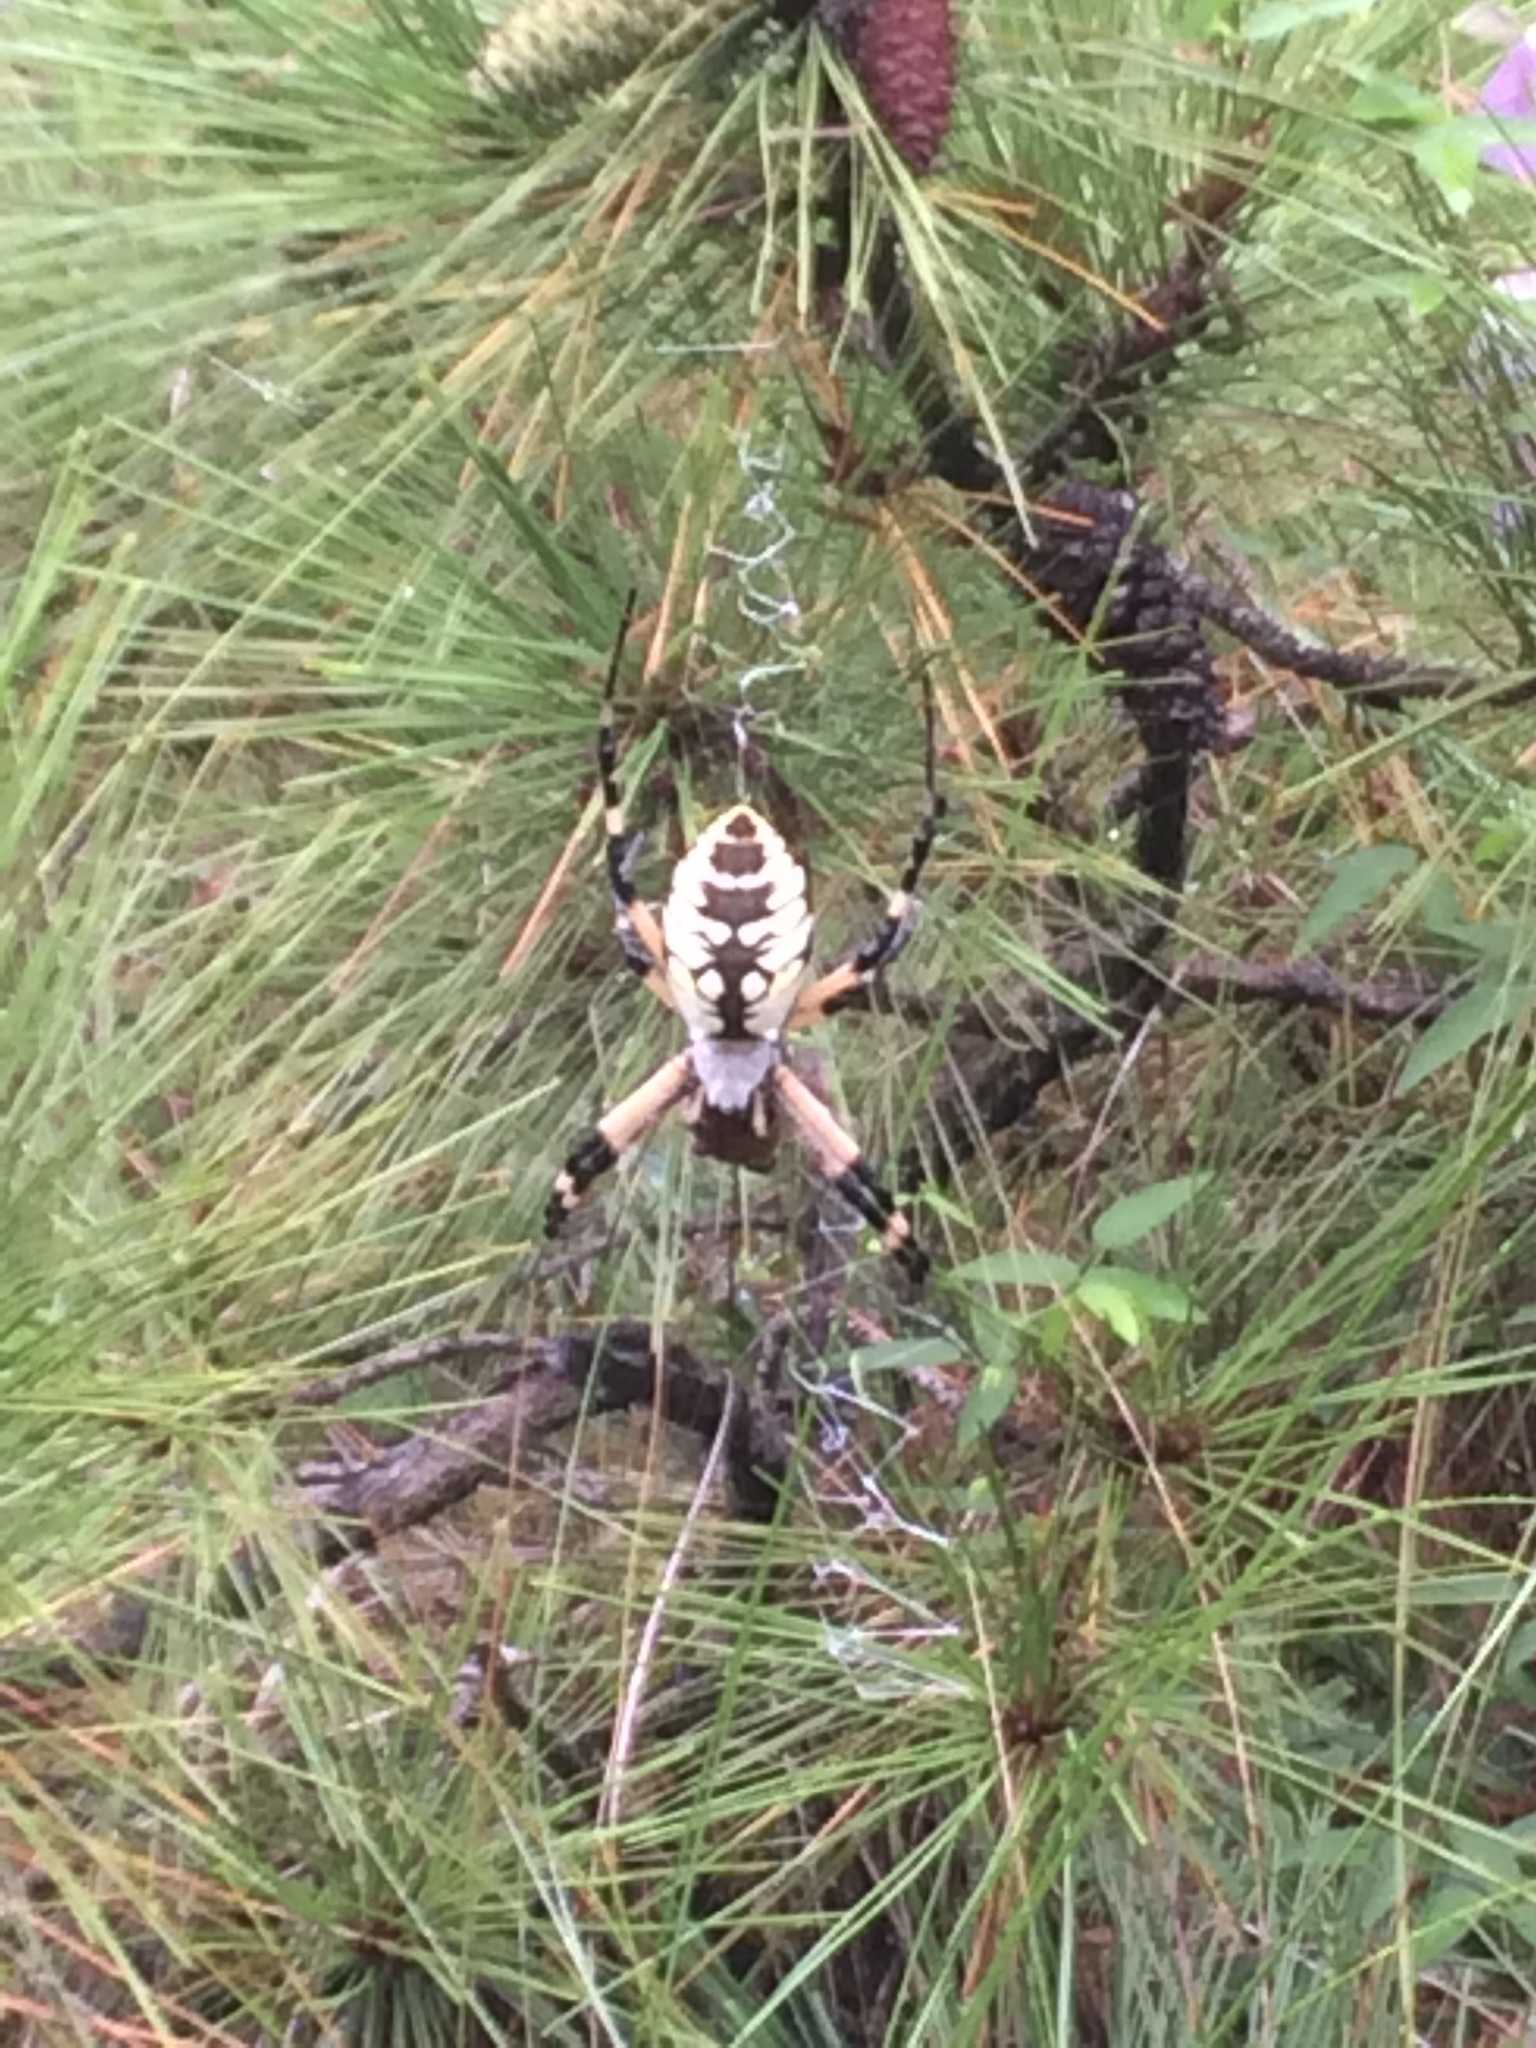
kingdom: Animalia
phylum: Arthropoda
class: Arachnida
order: Araneae
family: Araneidae
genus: Argiope
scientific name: Argiope aurantia
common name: Orb weavers
